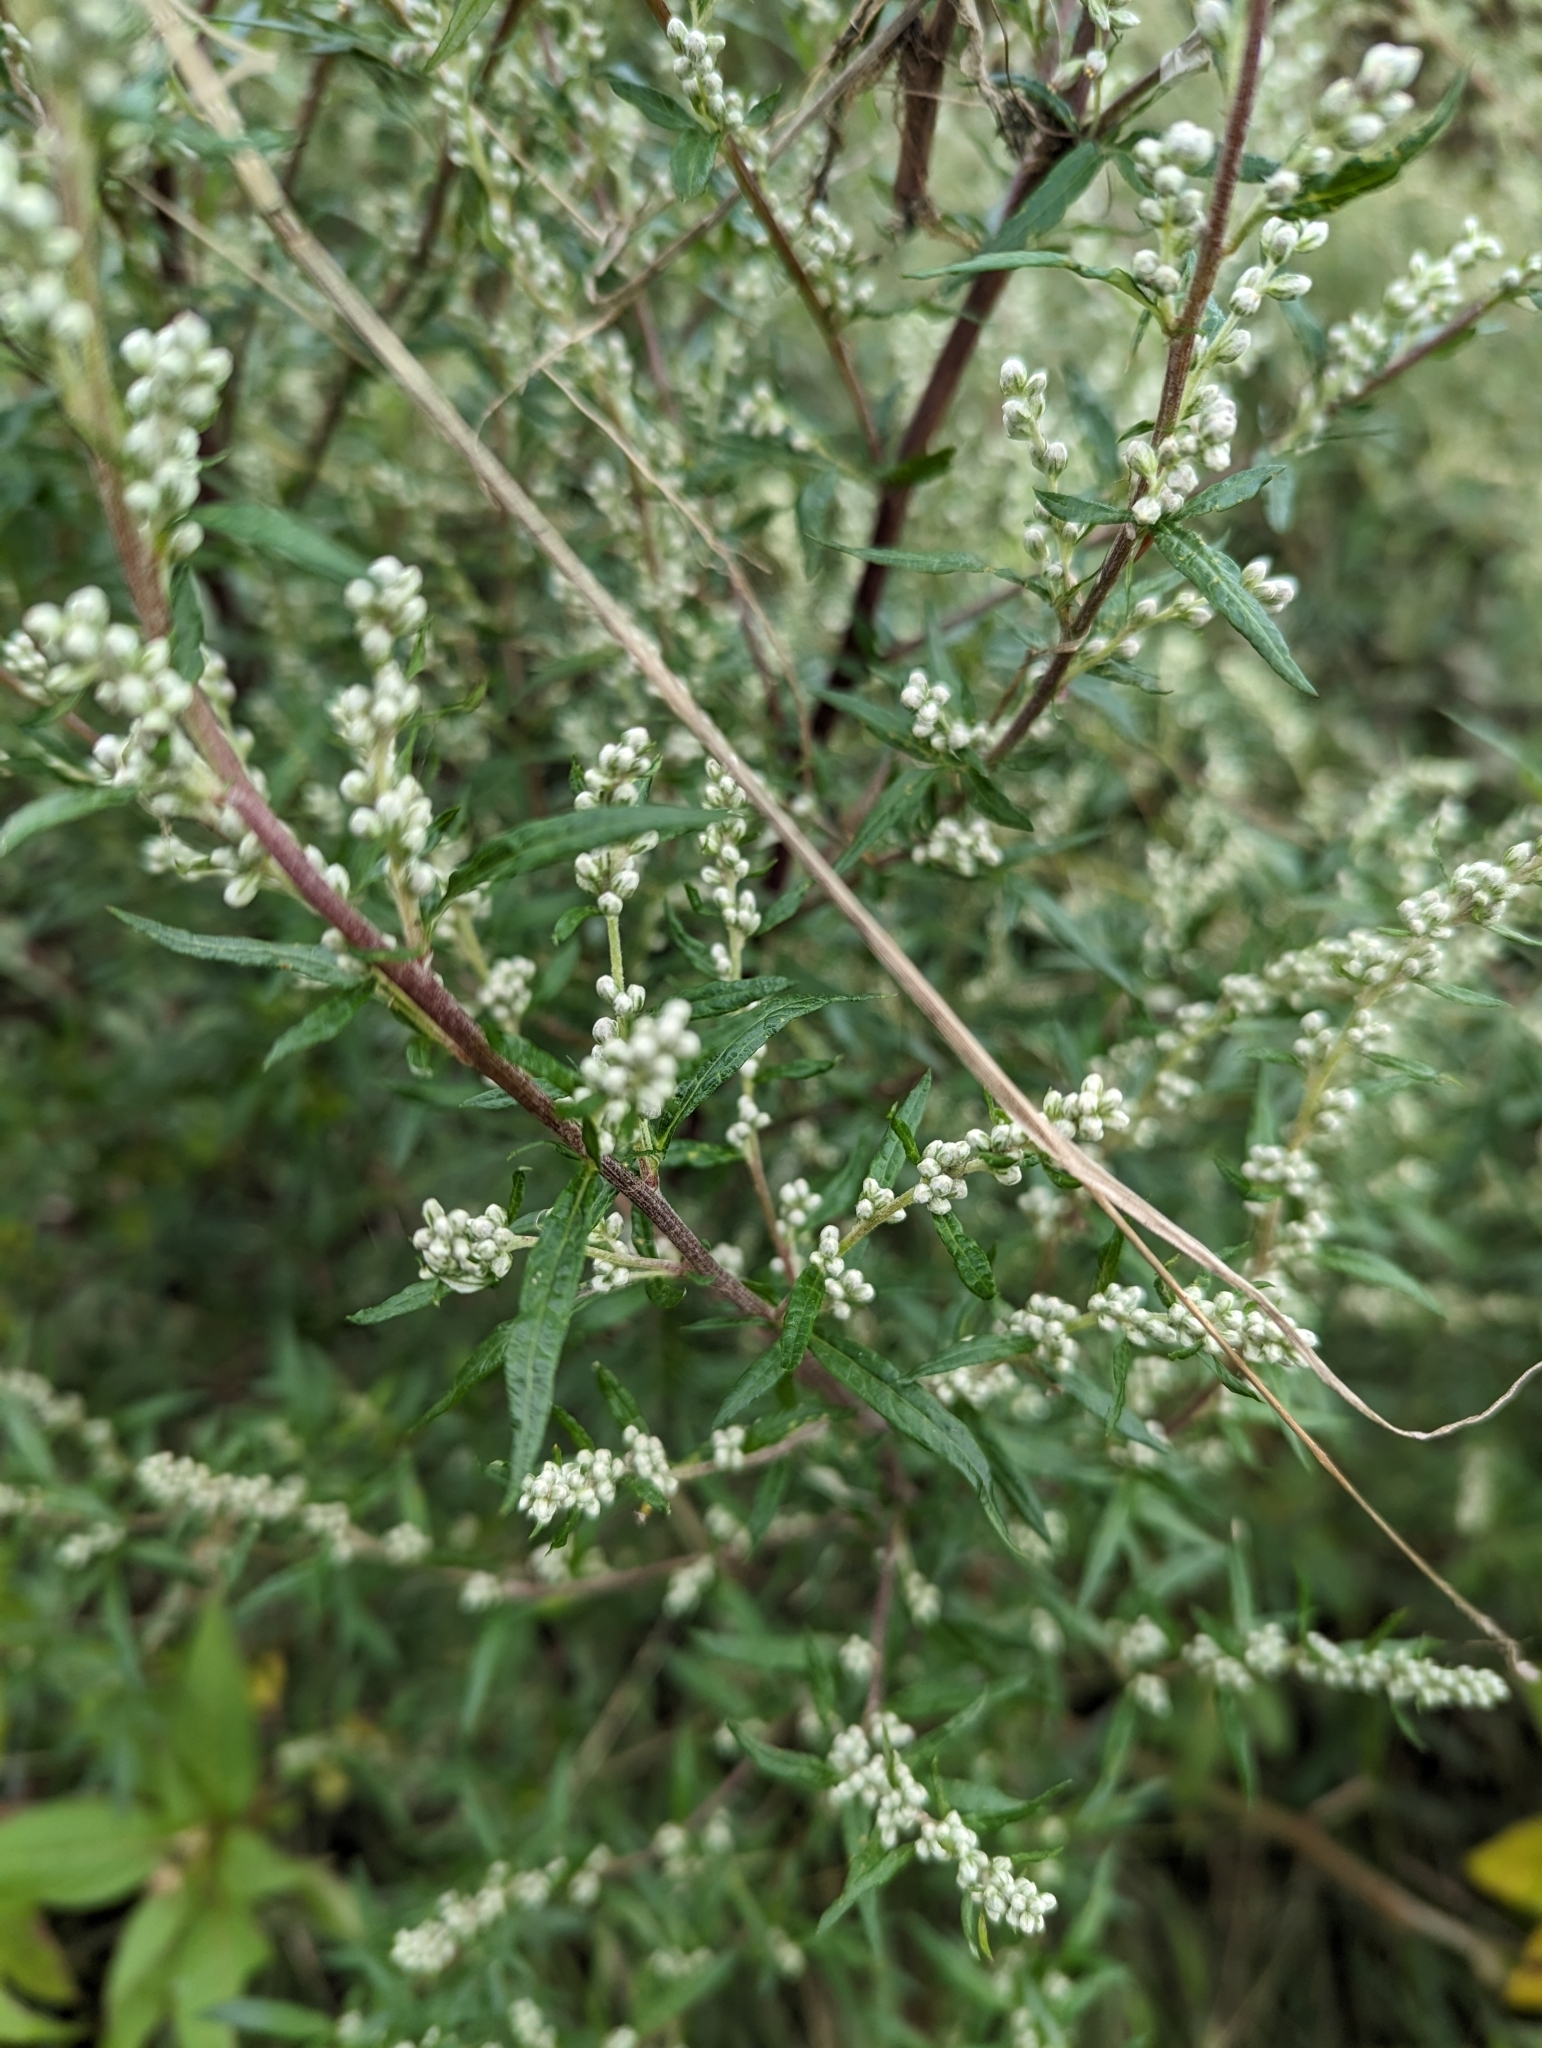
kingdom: Plantae
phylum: Tracheophyta
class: Magnoliopsida
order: Asterales
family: Asteraceae
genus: Artemisia
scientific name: Artemisia vulgaris
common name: Mugwort
